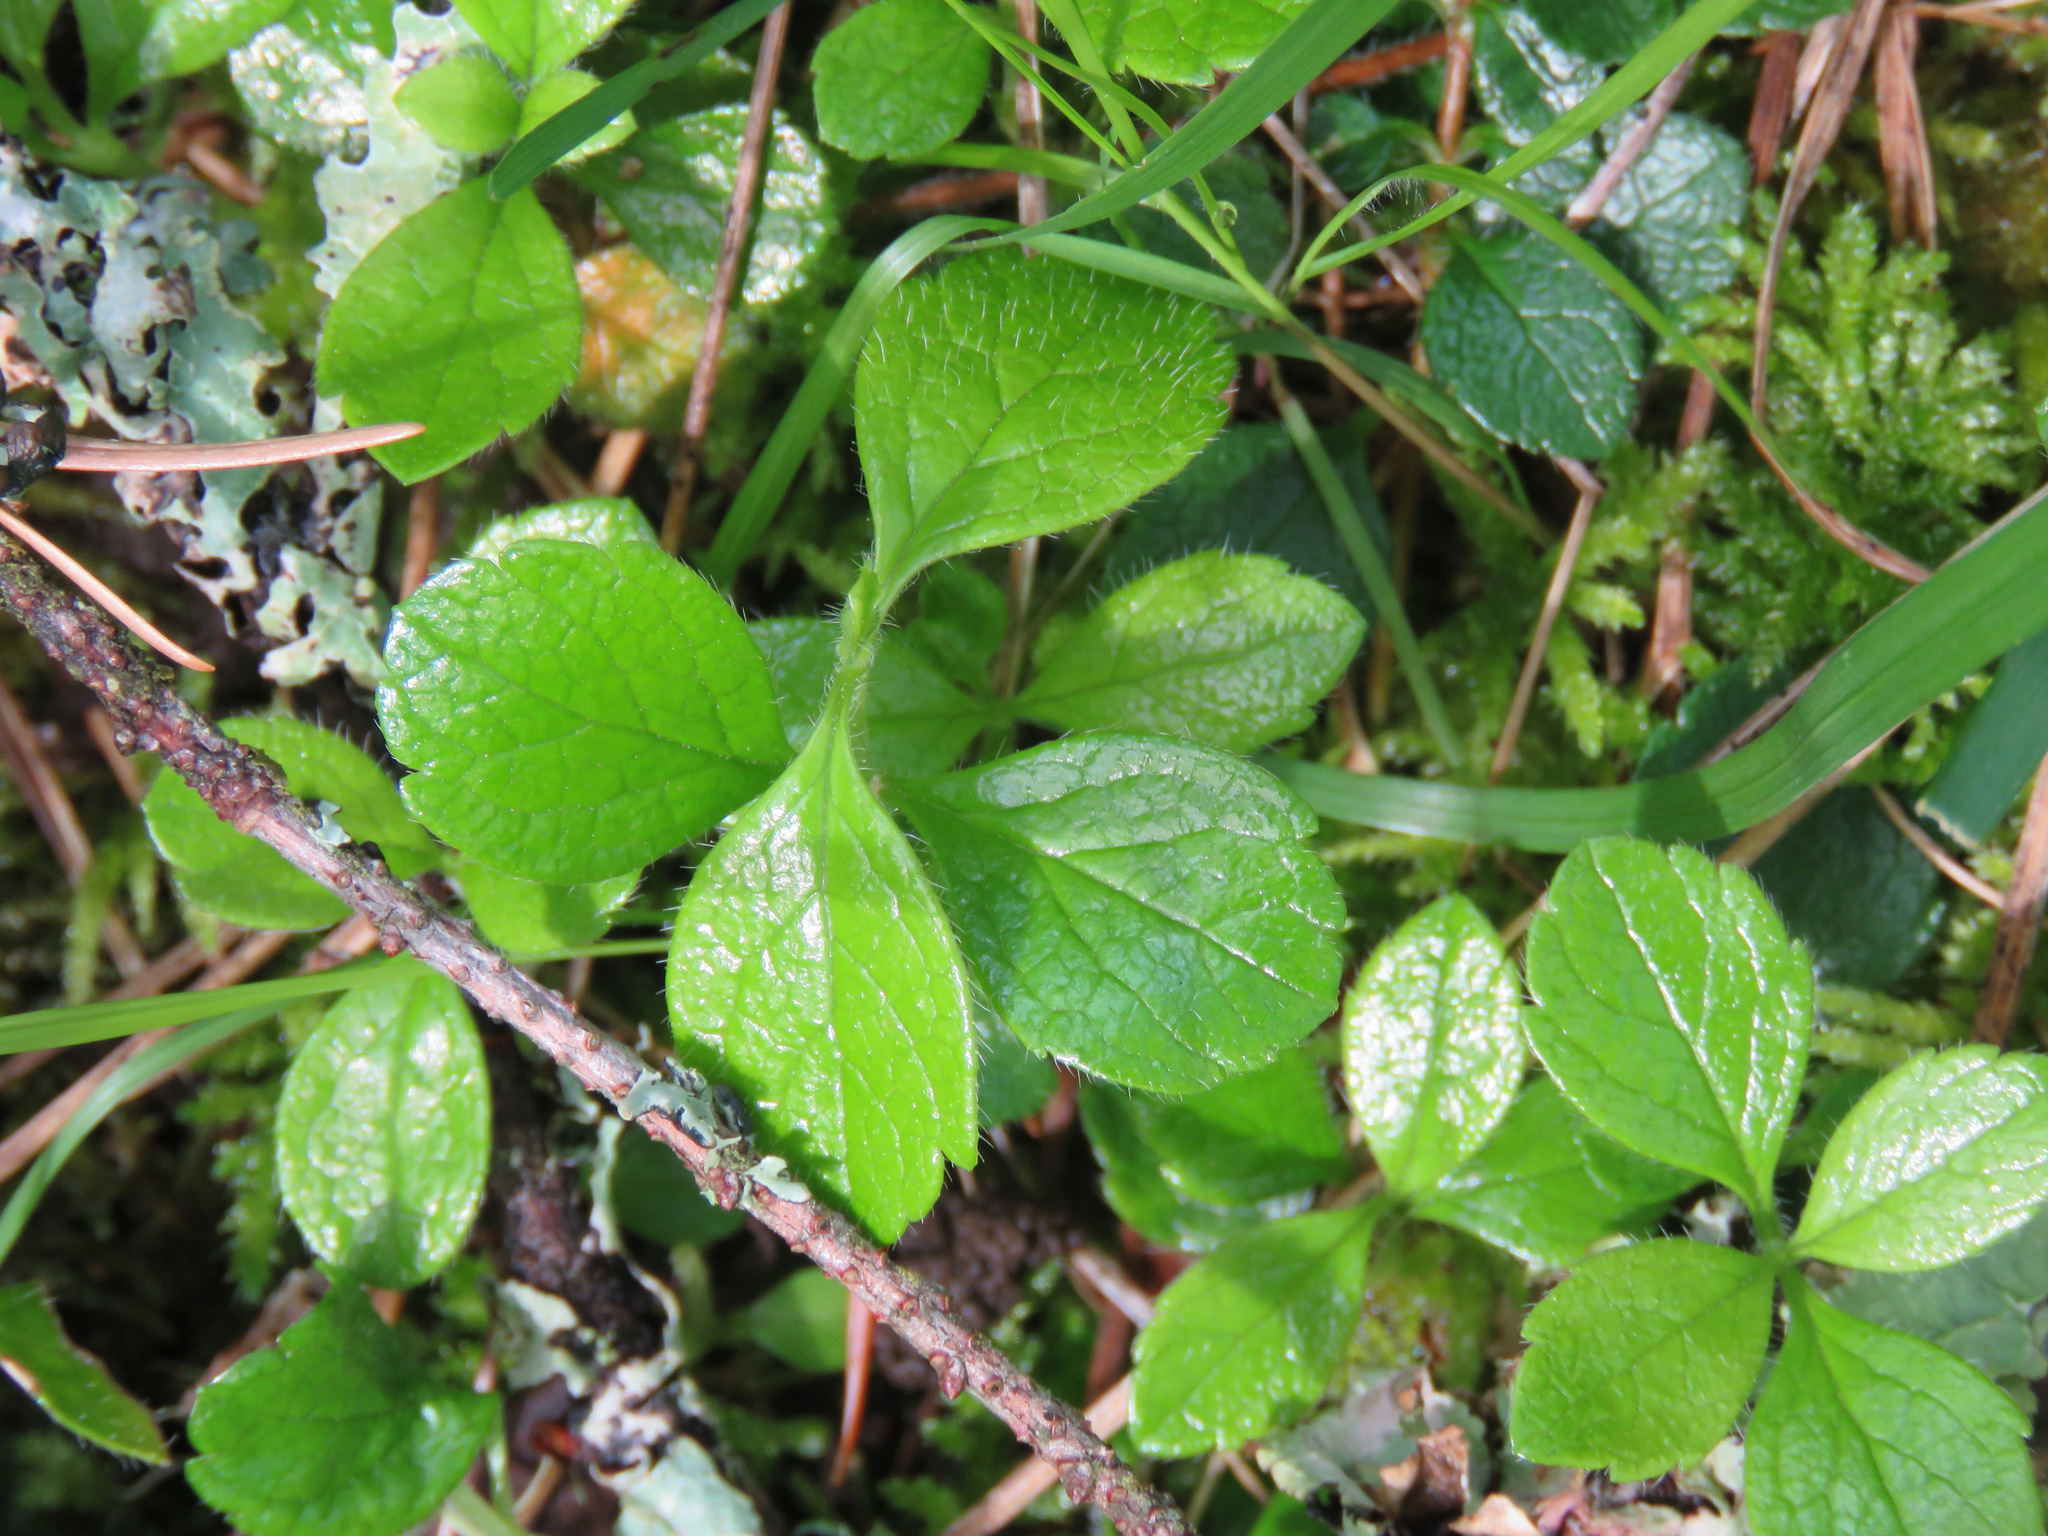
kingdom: Plantae
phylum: Tracheophyta
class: Magnoliopsida
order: Dipsacales
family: Caprifoliaceae
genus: Linnaea
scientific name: Linnaea borealis
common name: Twinflower
